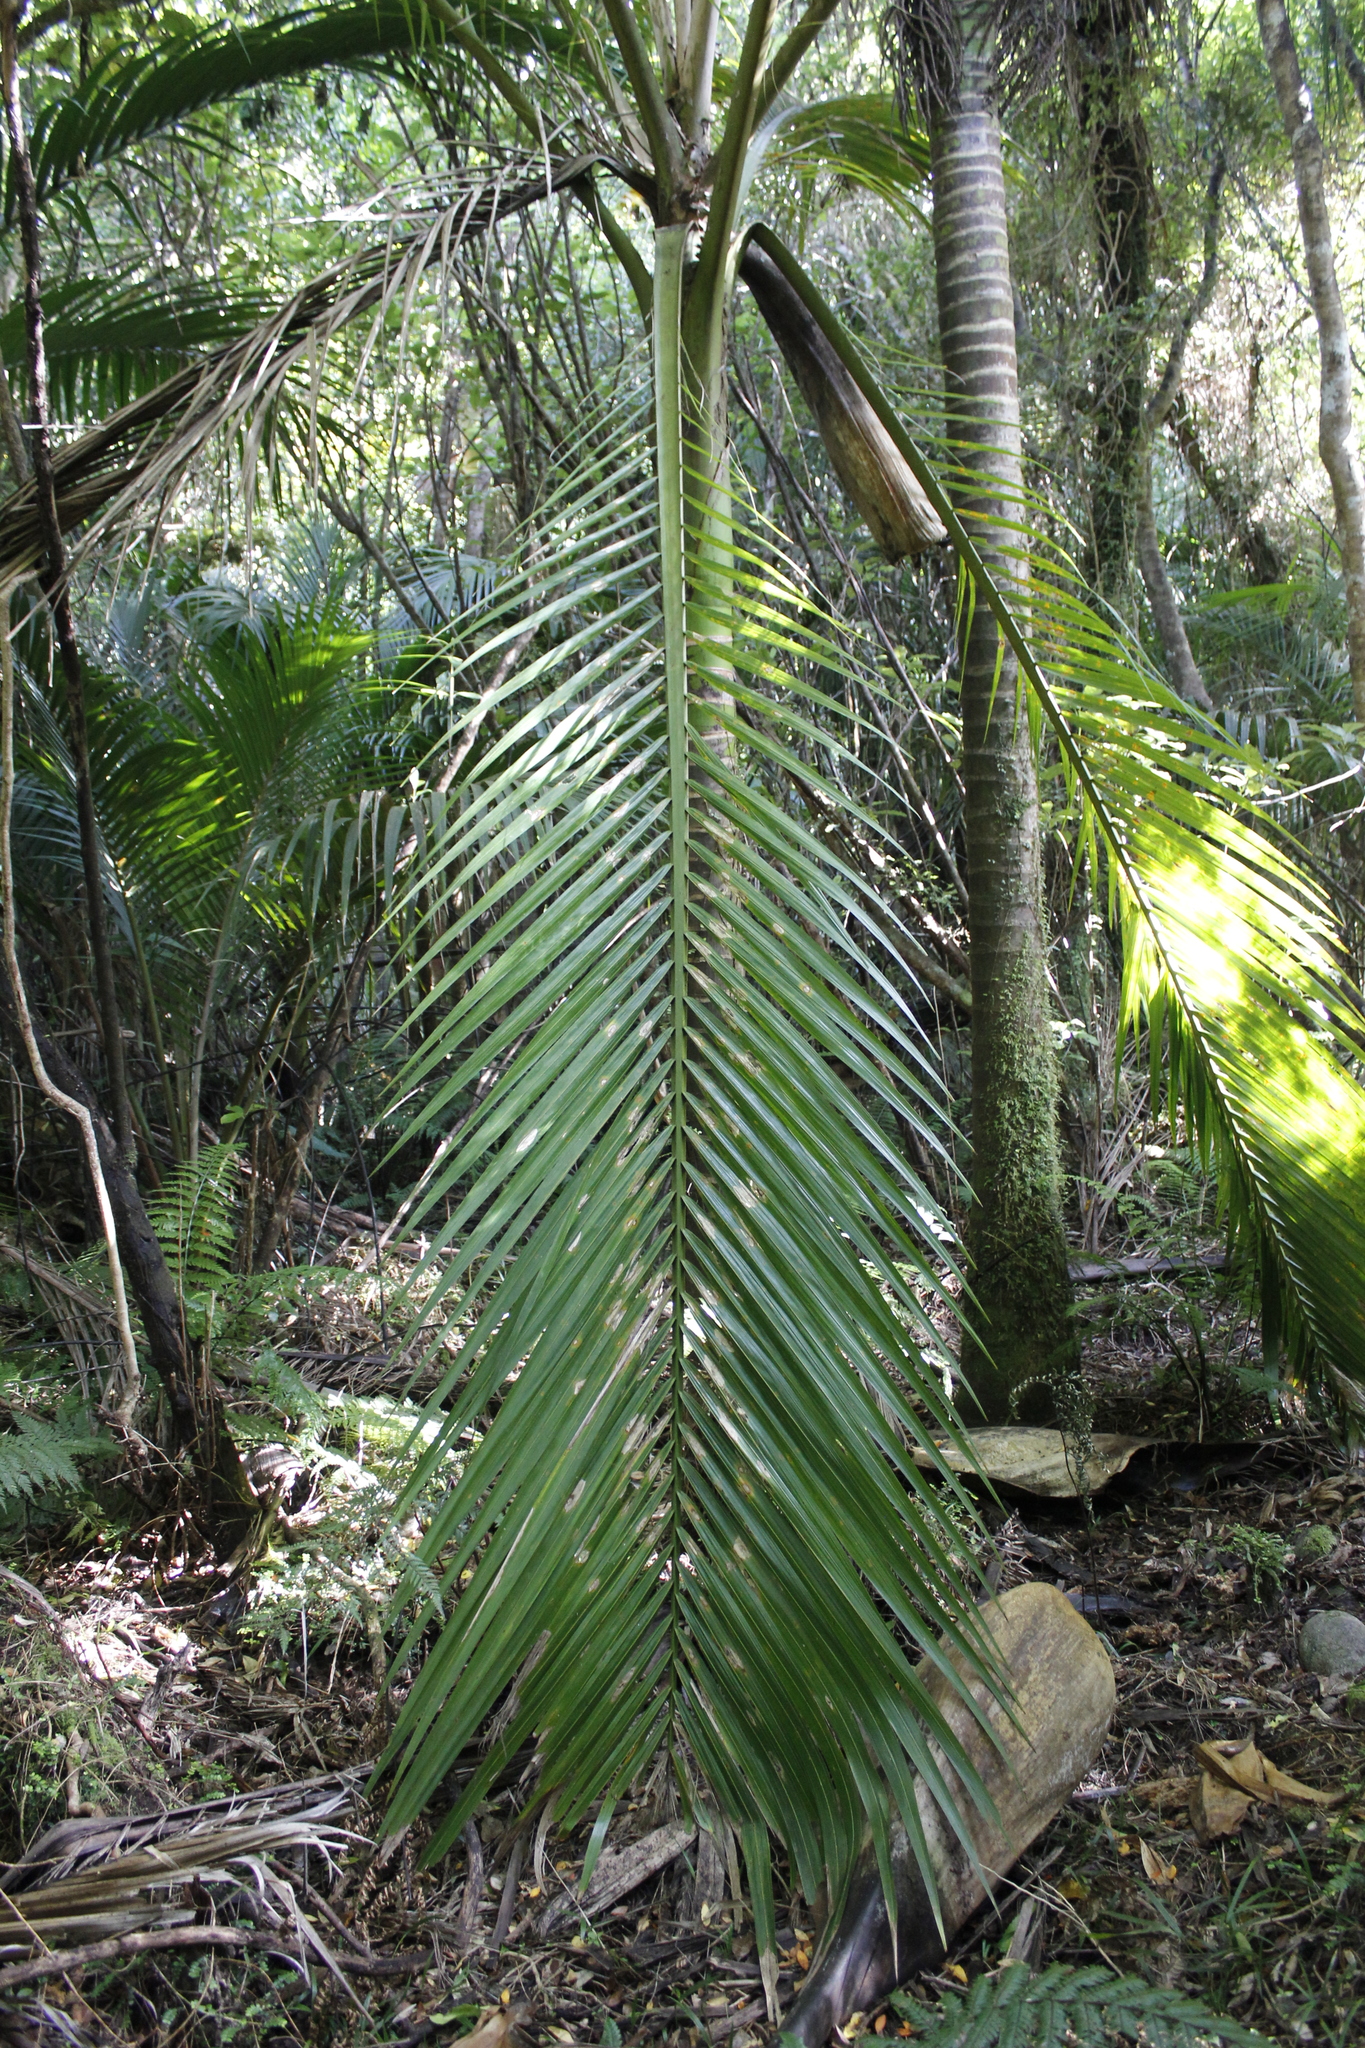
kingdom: Plantae
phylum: Tracheophyta
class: Liliopsida
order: Arecales
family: Arecaceae
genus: Rhopalostylis
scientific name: Rhopalostylis sapida
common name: Feather-duster palm
